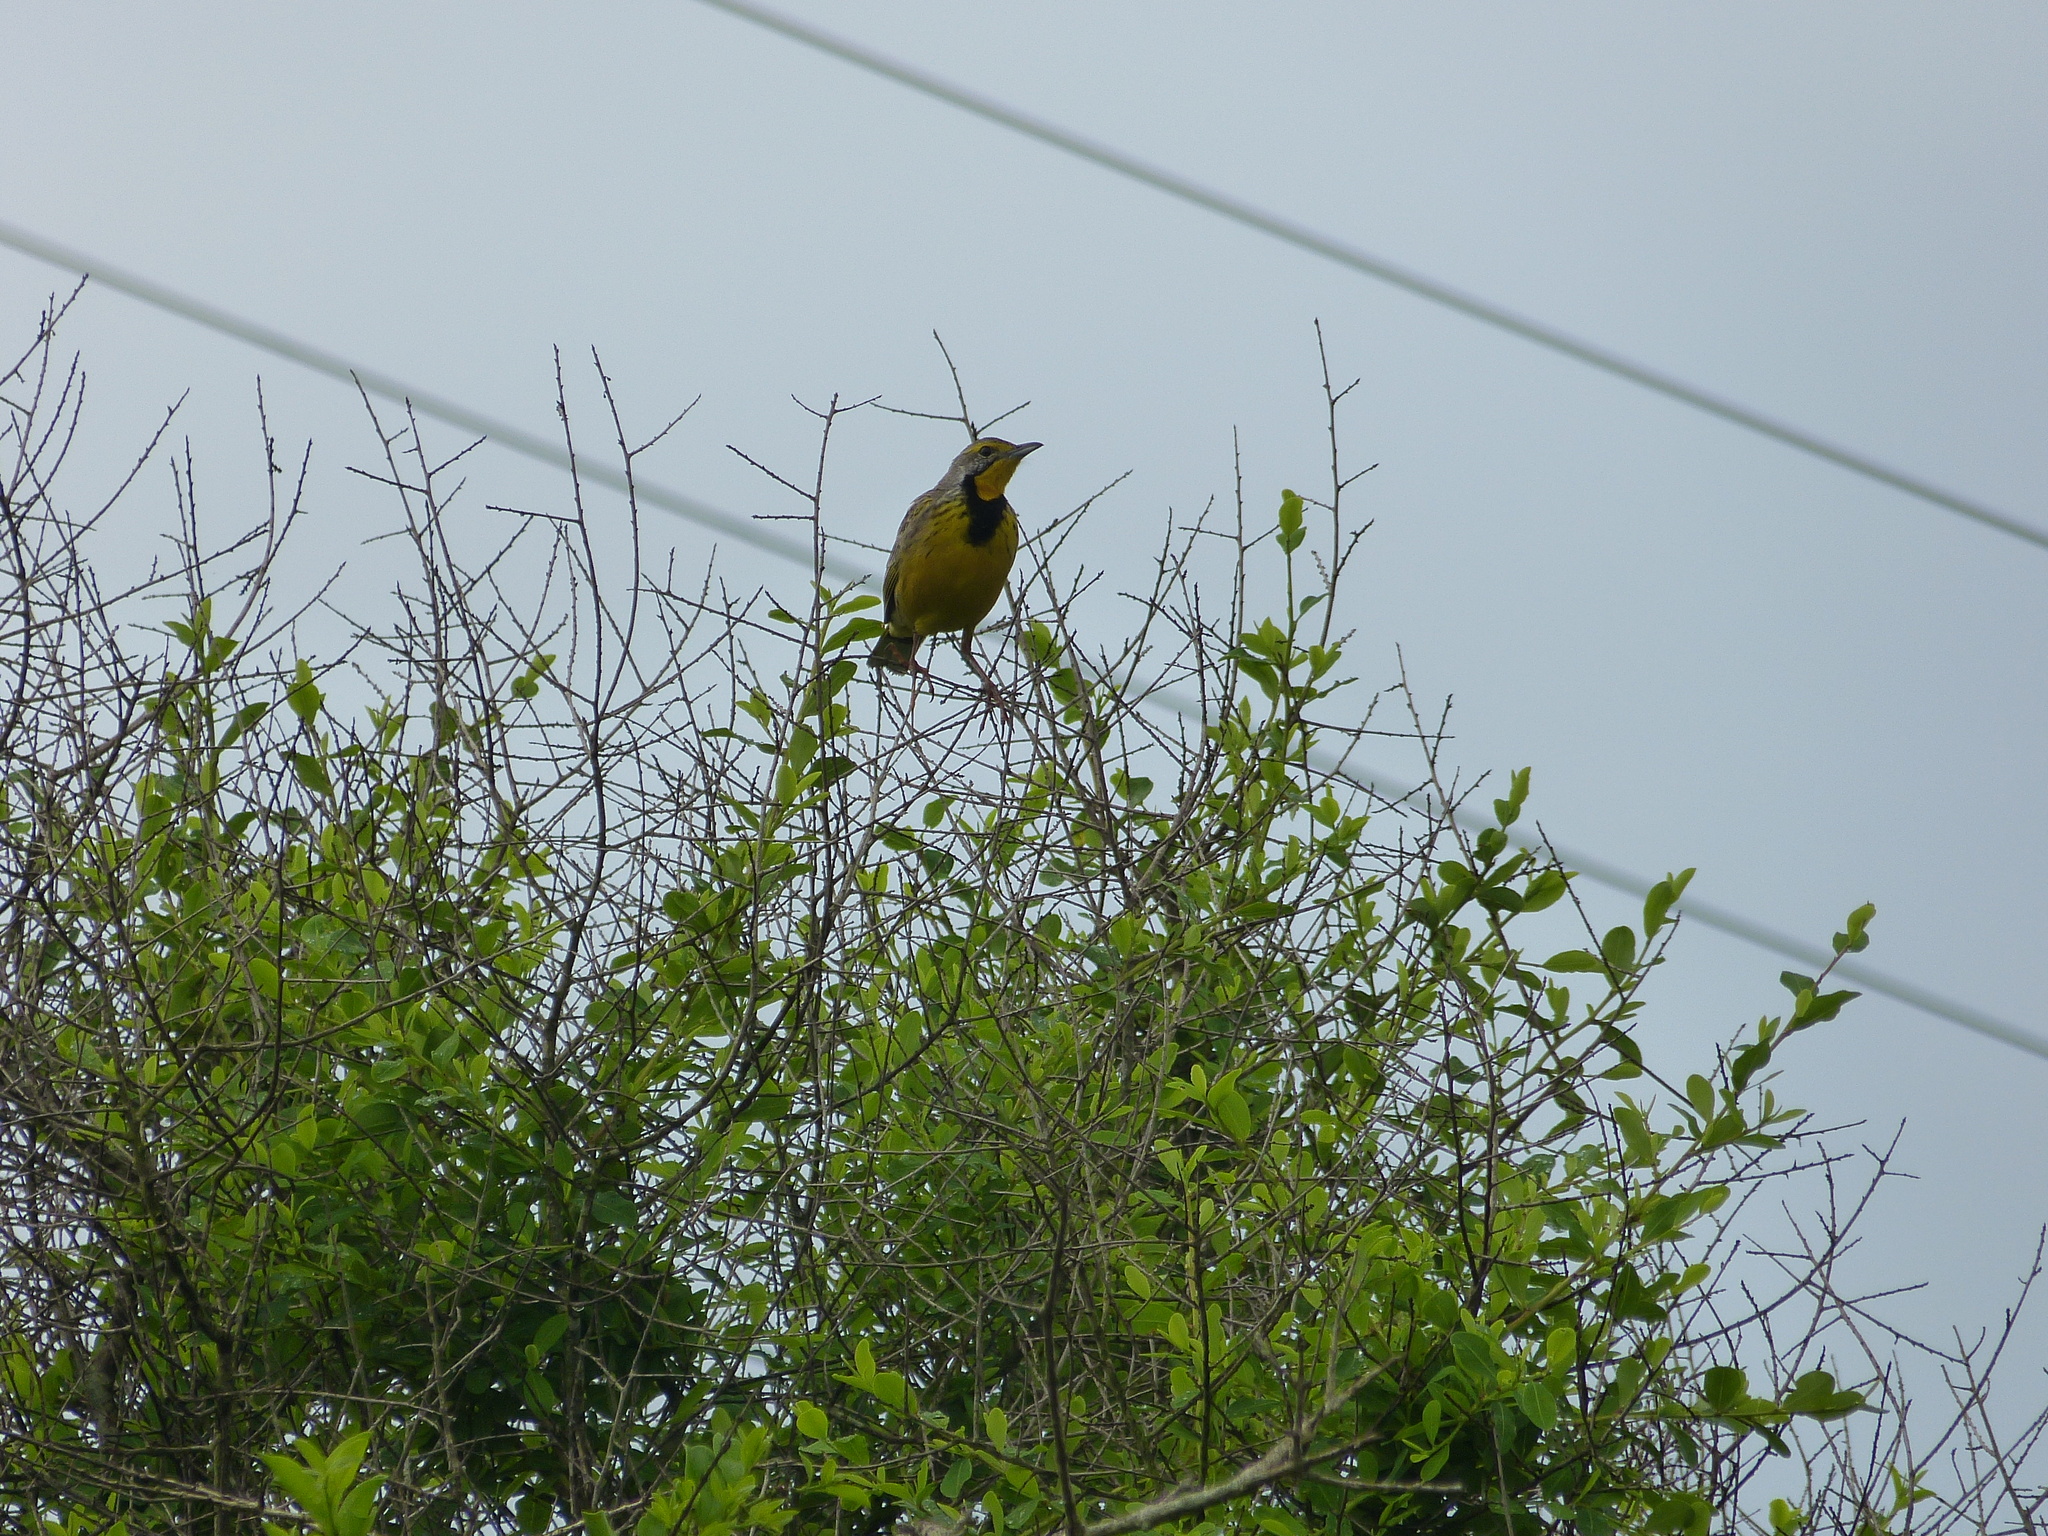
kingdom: Animalia
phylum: Chordata
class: Aves
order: Passeriformes
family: Motacillidae
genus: Macronyx
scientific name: Macronyx croceus
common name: Yellow-throated longclaw
